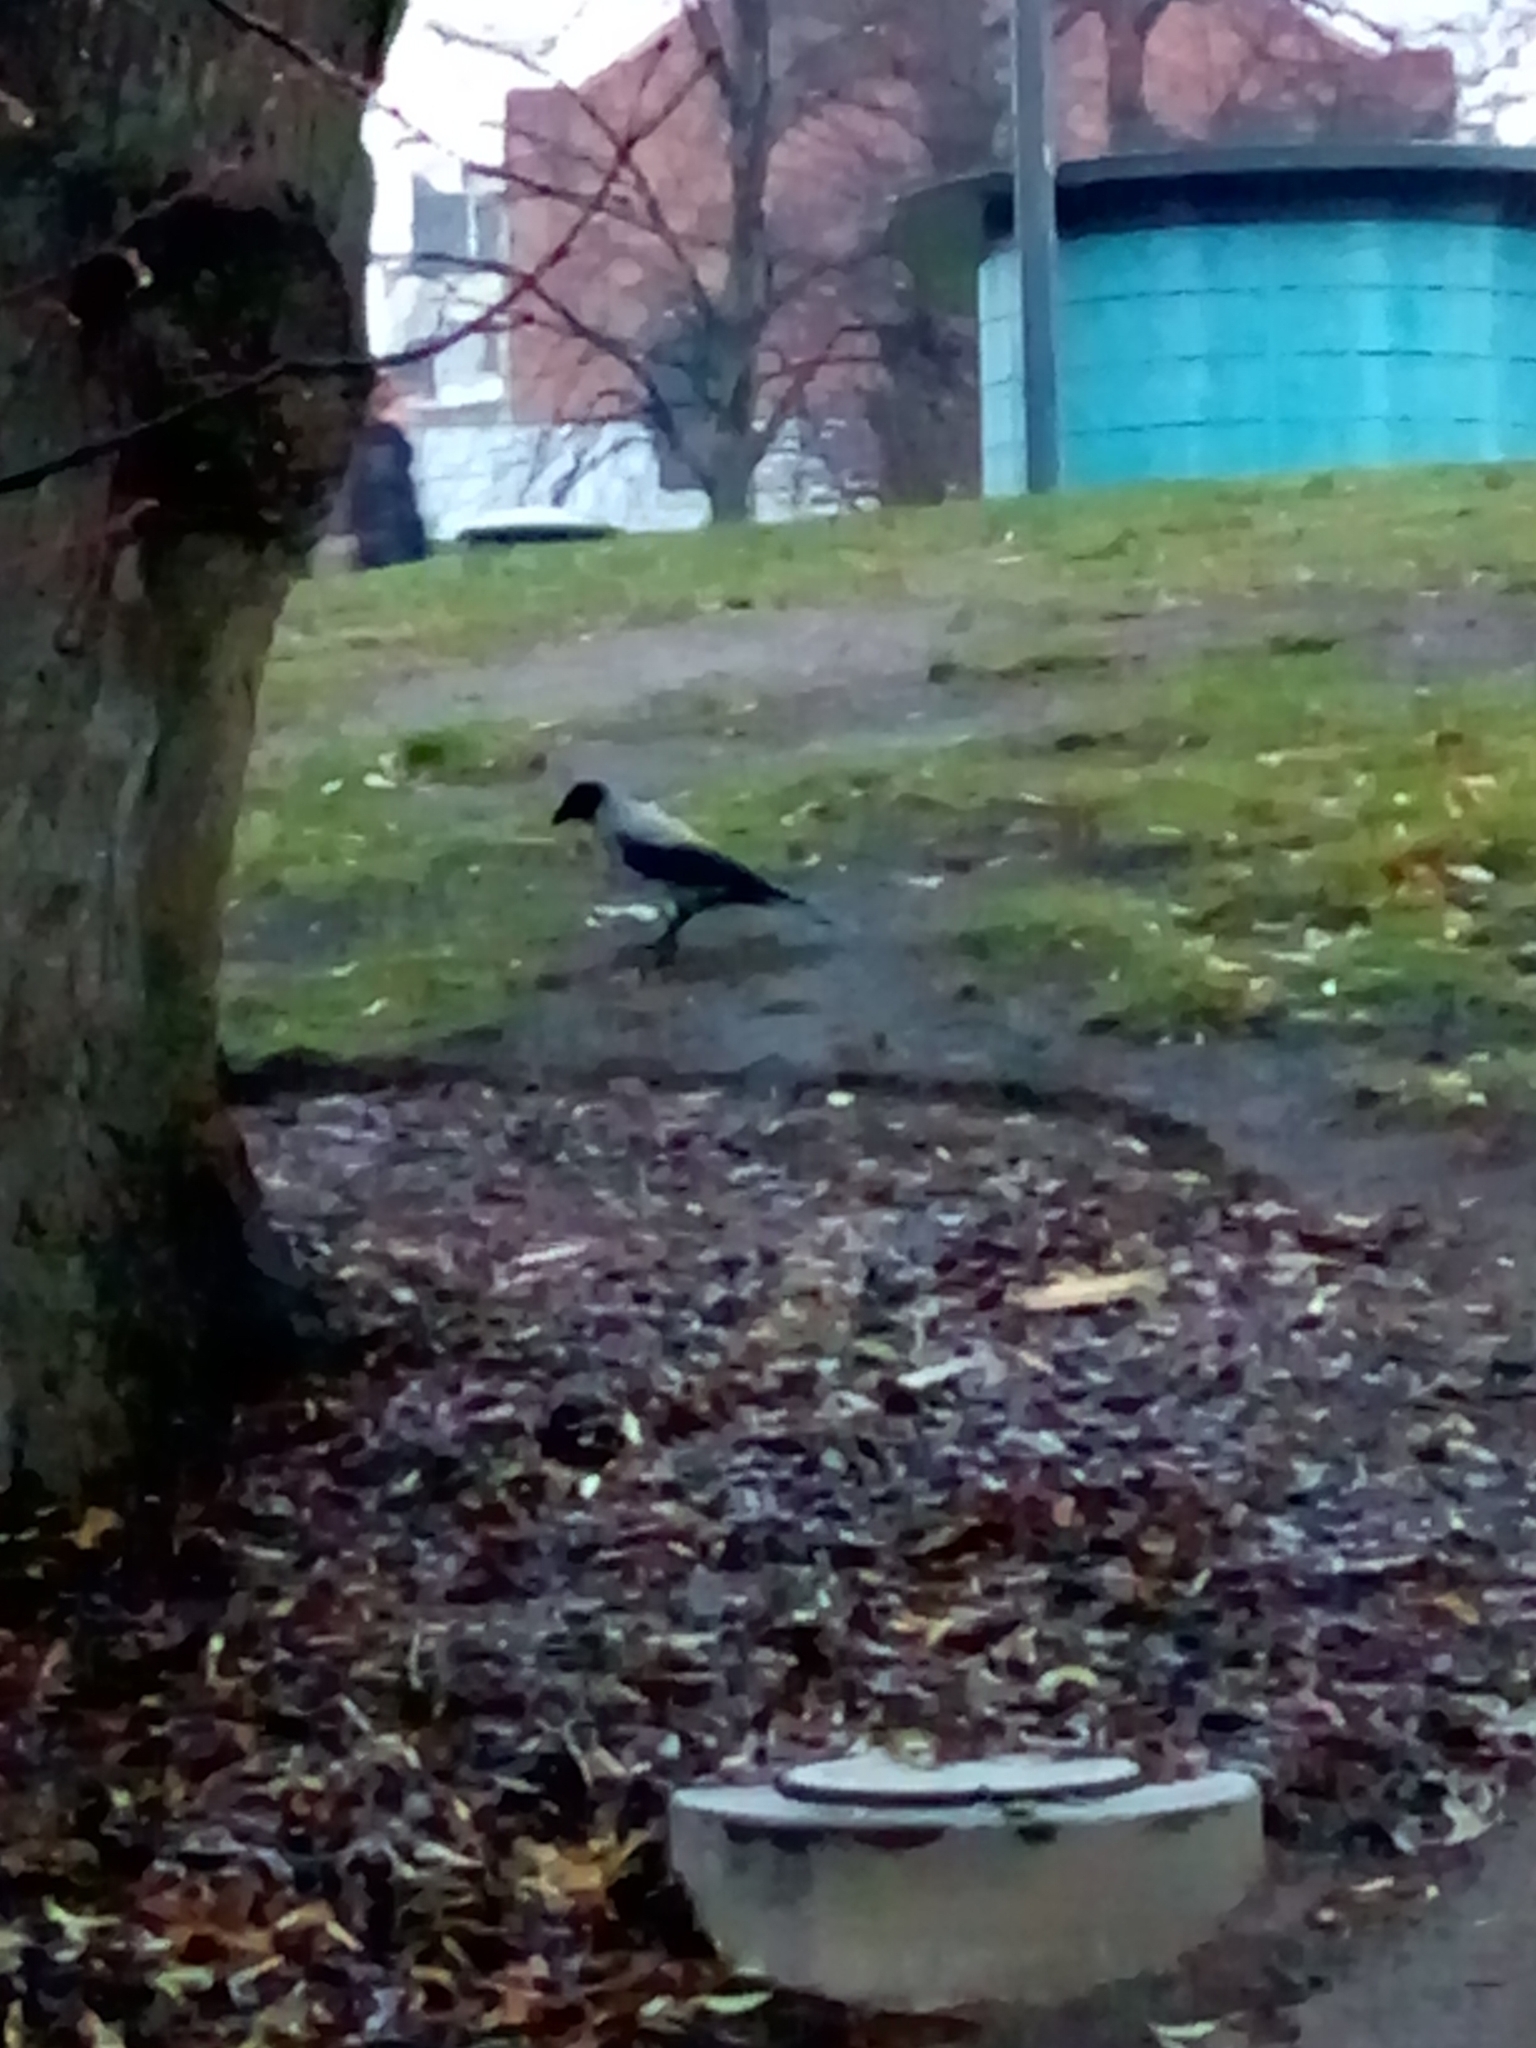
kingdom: Animalia
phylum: Chordata
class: Aves
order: Passeriformes
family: Corvidae
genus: Corvus
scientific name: Corvus cornix
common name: Hooded crow
